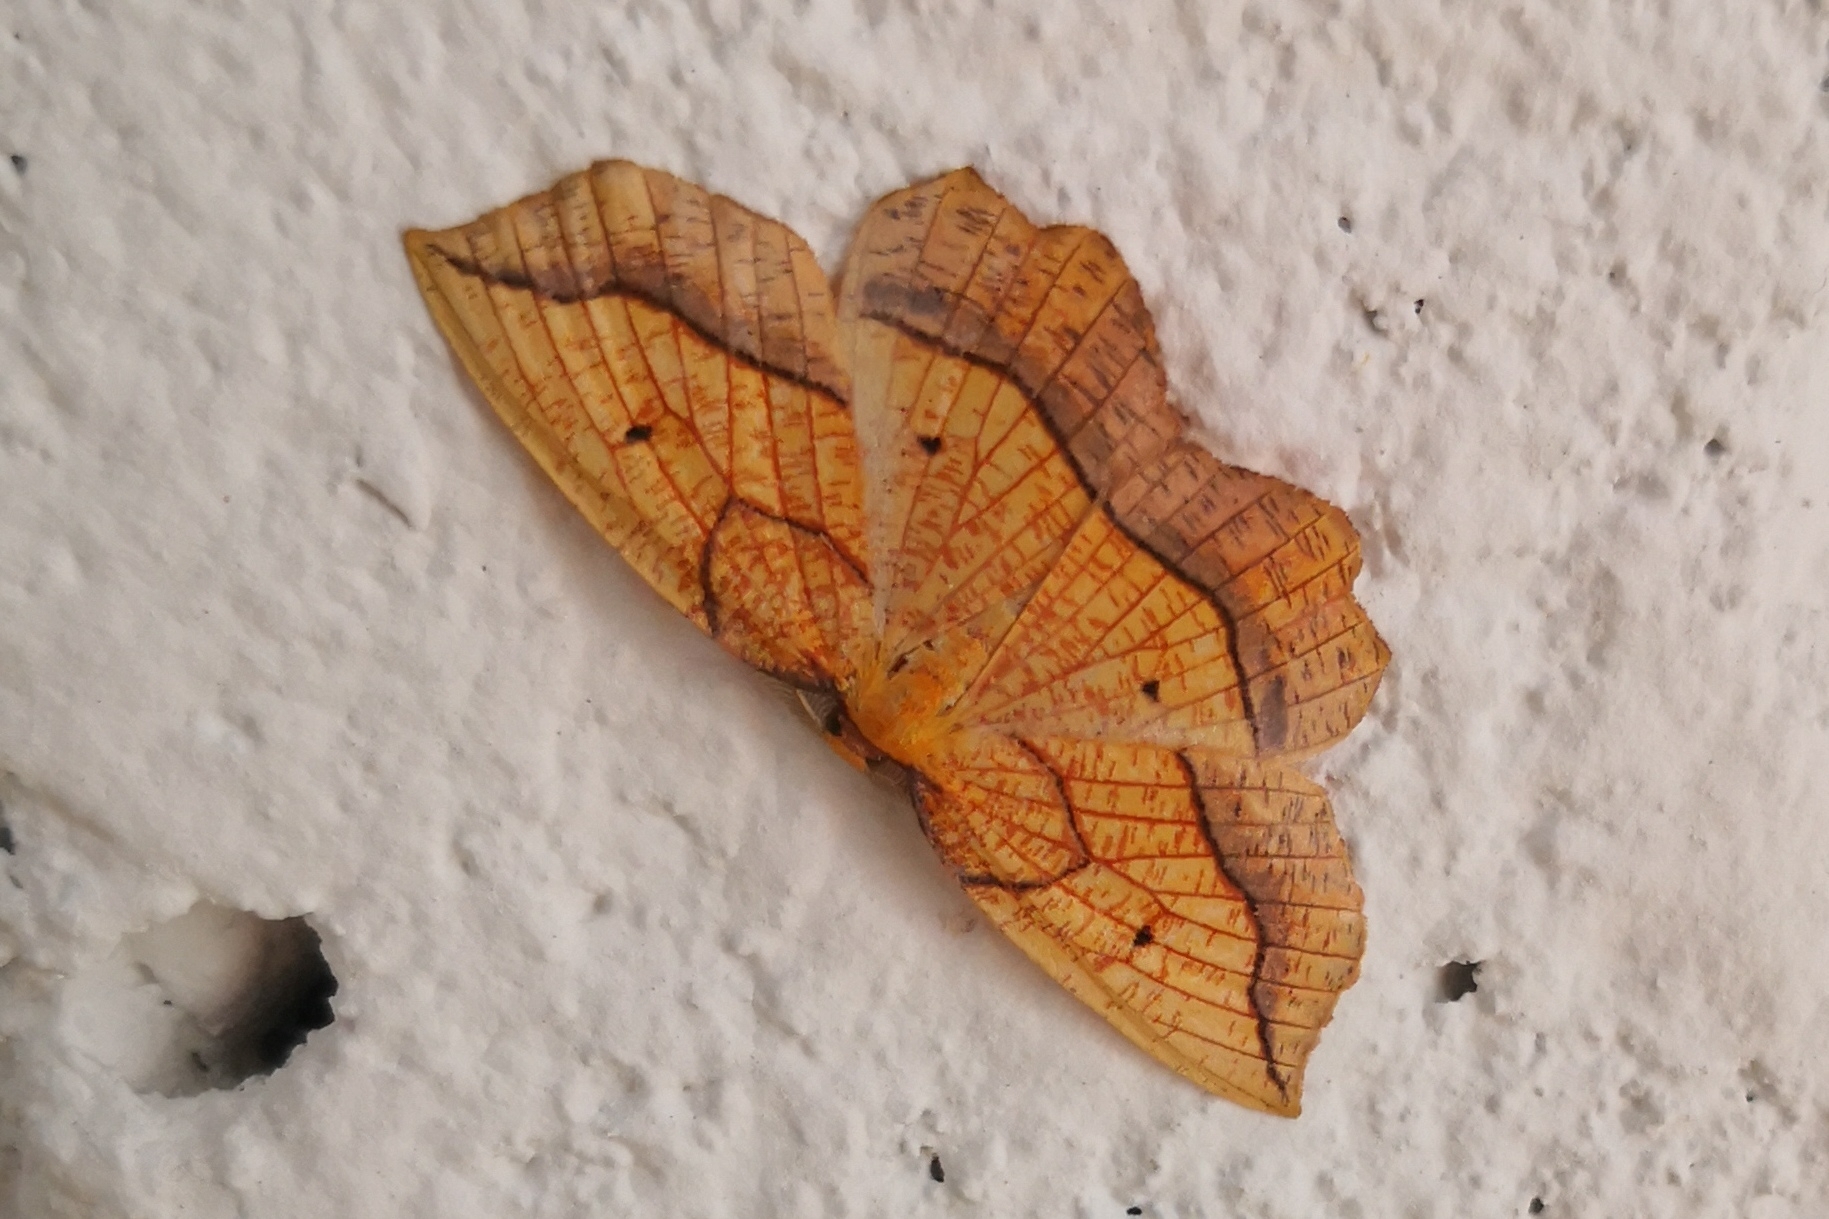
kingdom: Animalia
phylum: Arthropoda
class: Insecta
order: Lepidoptera
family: Geometridae
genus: Epione
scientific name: Epione repandaria
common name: Bordered beauty
